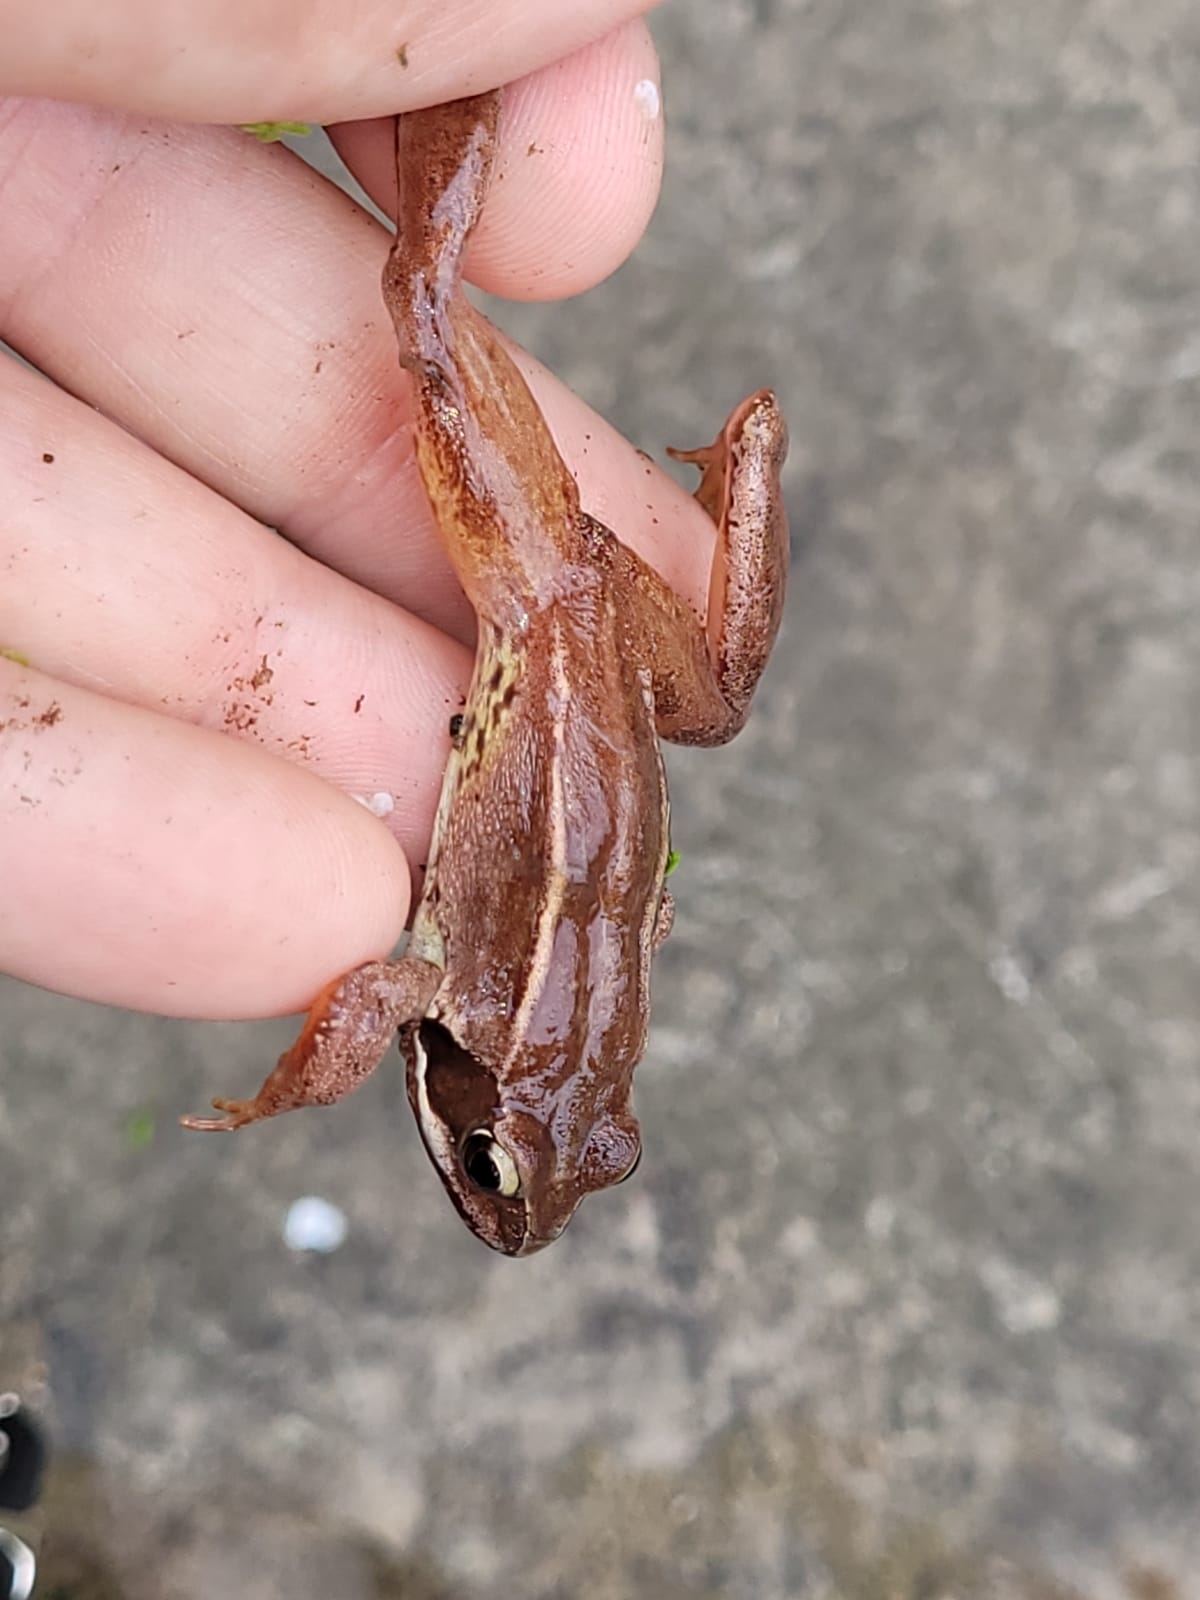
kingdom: Animalia
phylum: Chordata
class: Amphibia
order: Anura
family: Ranidae
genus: Rana
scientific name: Rana temporaria
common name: Common frog
